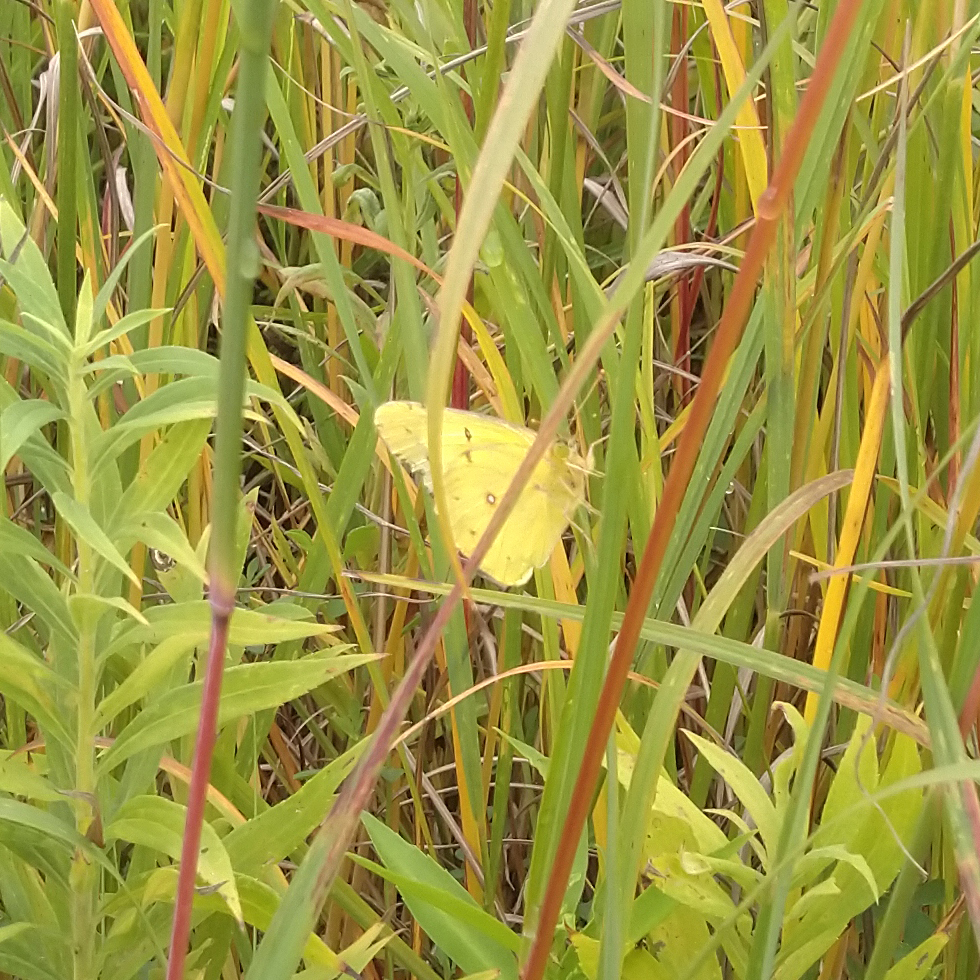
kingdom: Animalia
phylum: Arthropoda
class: Insecta
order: Lepidoptera
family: Pieridae
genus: Colias
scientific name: Colias philodice
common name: Clouded sulphur
